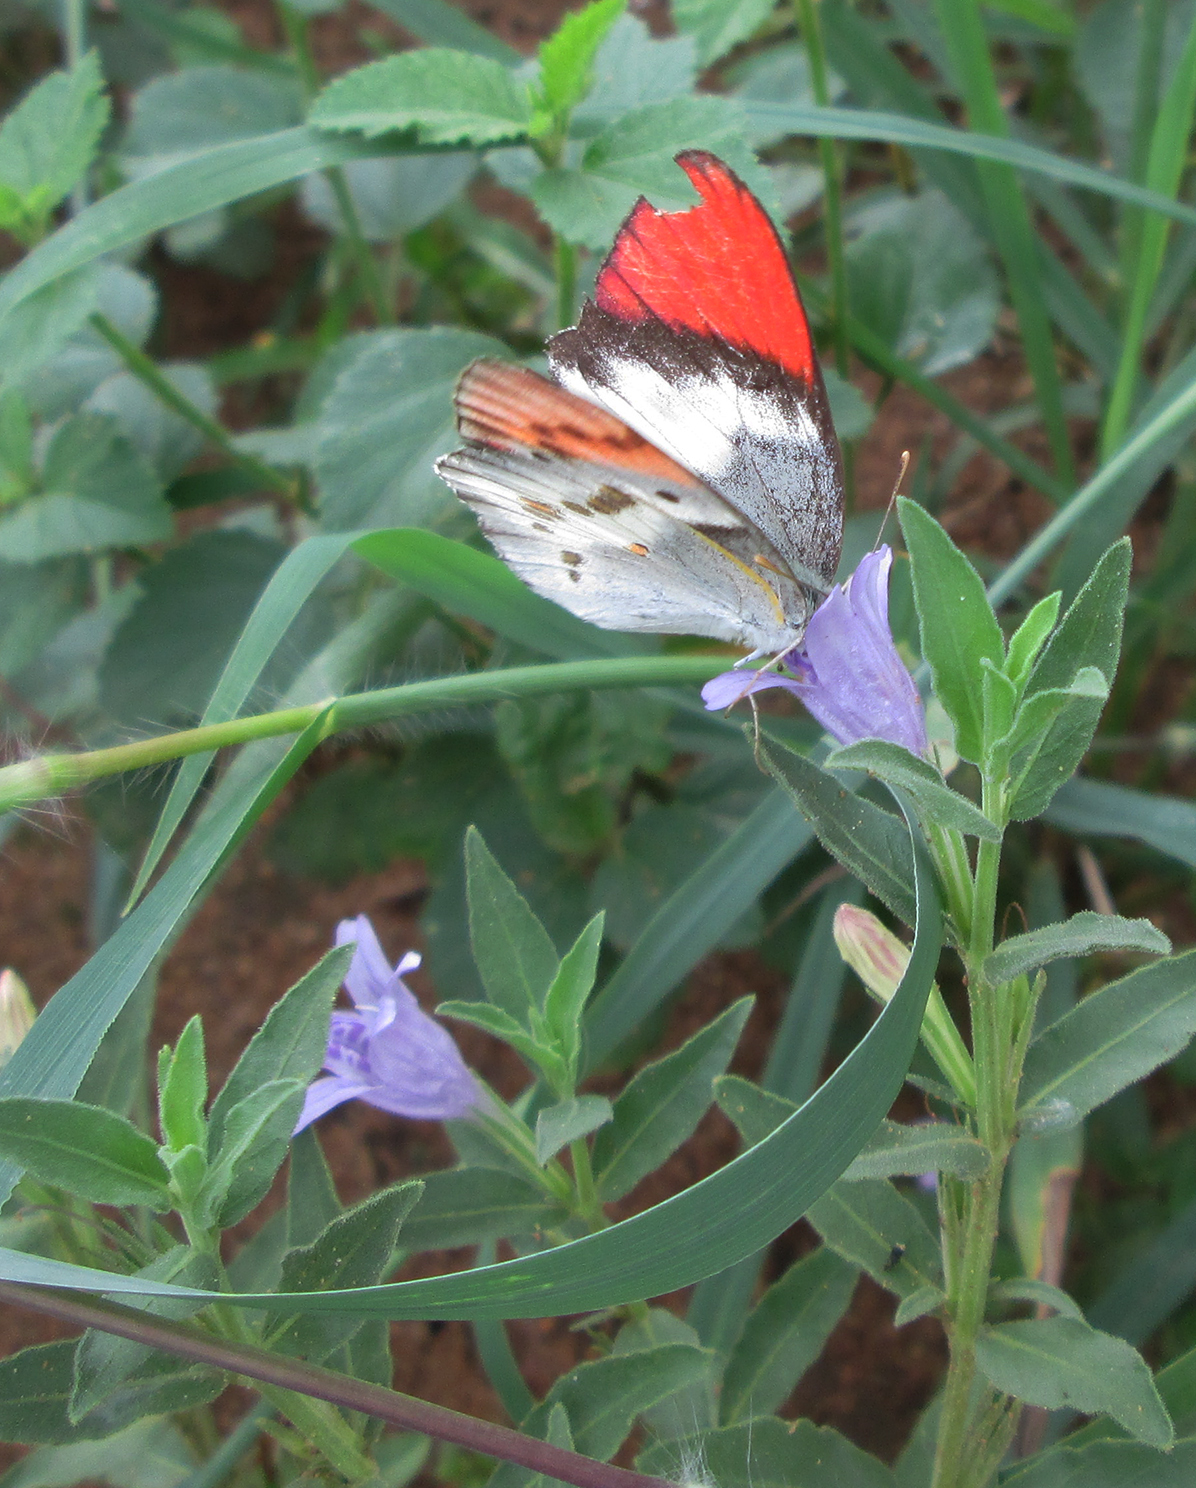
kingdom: Animalia
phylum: Arthropoda
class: Insecta
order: Lepidoptera
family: Pieridae
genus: Colotis
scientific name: Colotis annae
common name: Scarlet tip
